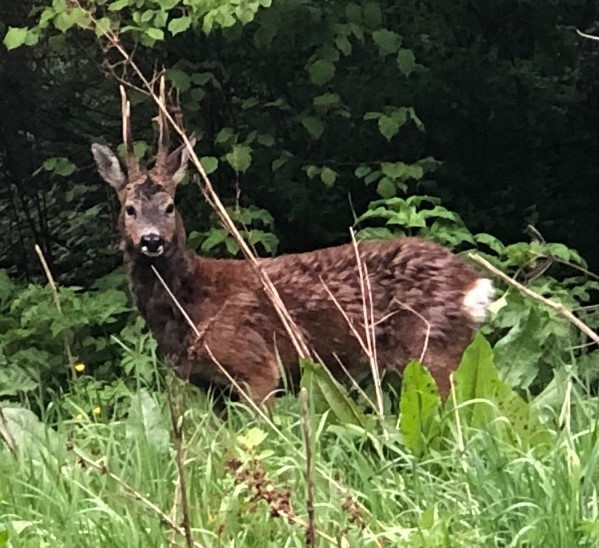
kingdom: Animalia
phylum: Chordata
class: Mammalia
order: Artiodactyla
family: Cervidae
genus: Capreolus
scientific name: Capreolus capreolus
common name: Western roe deer
